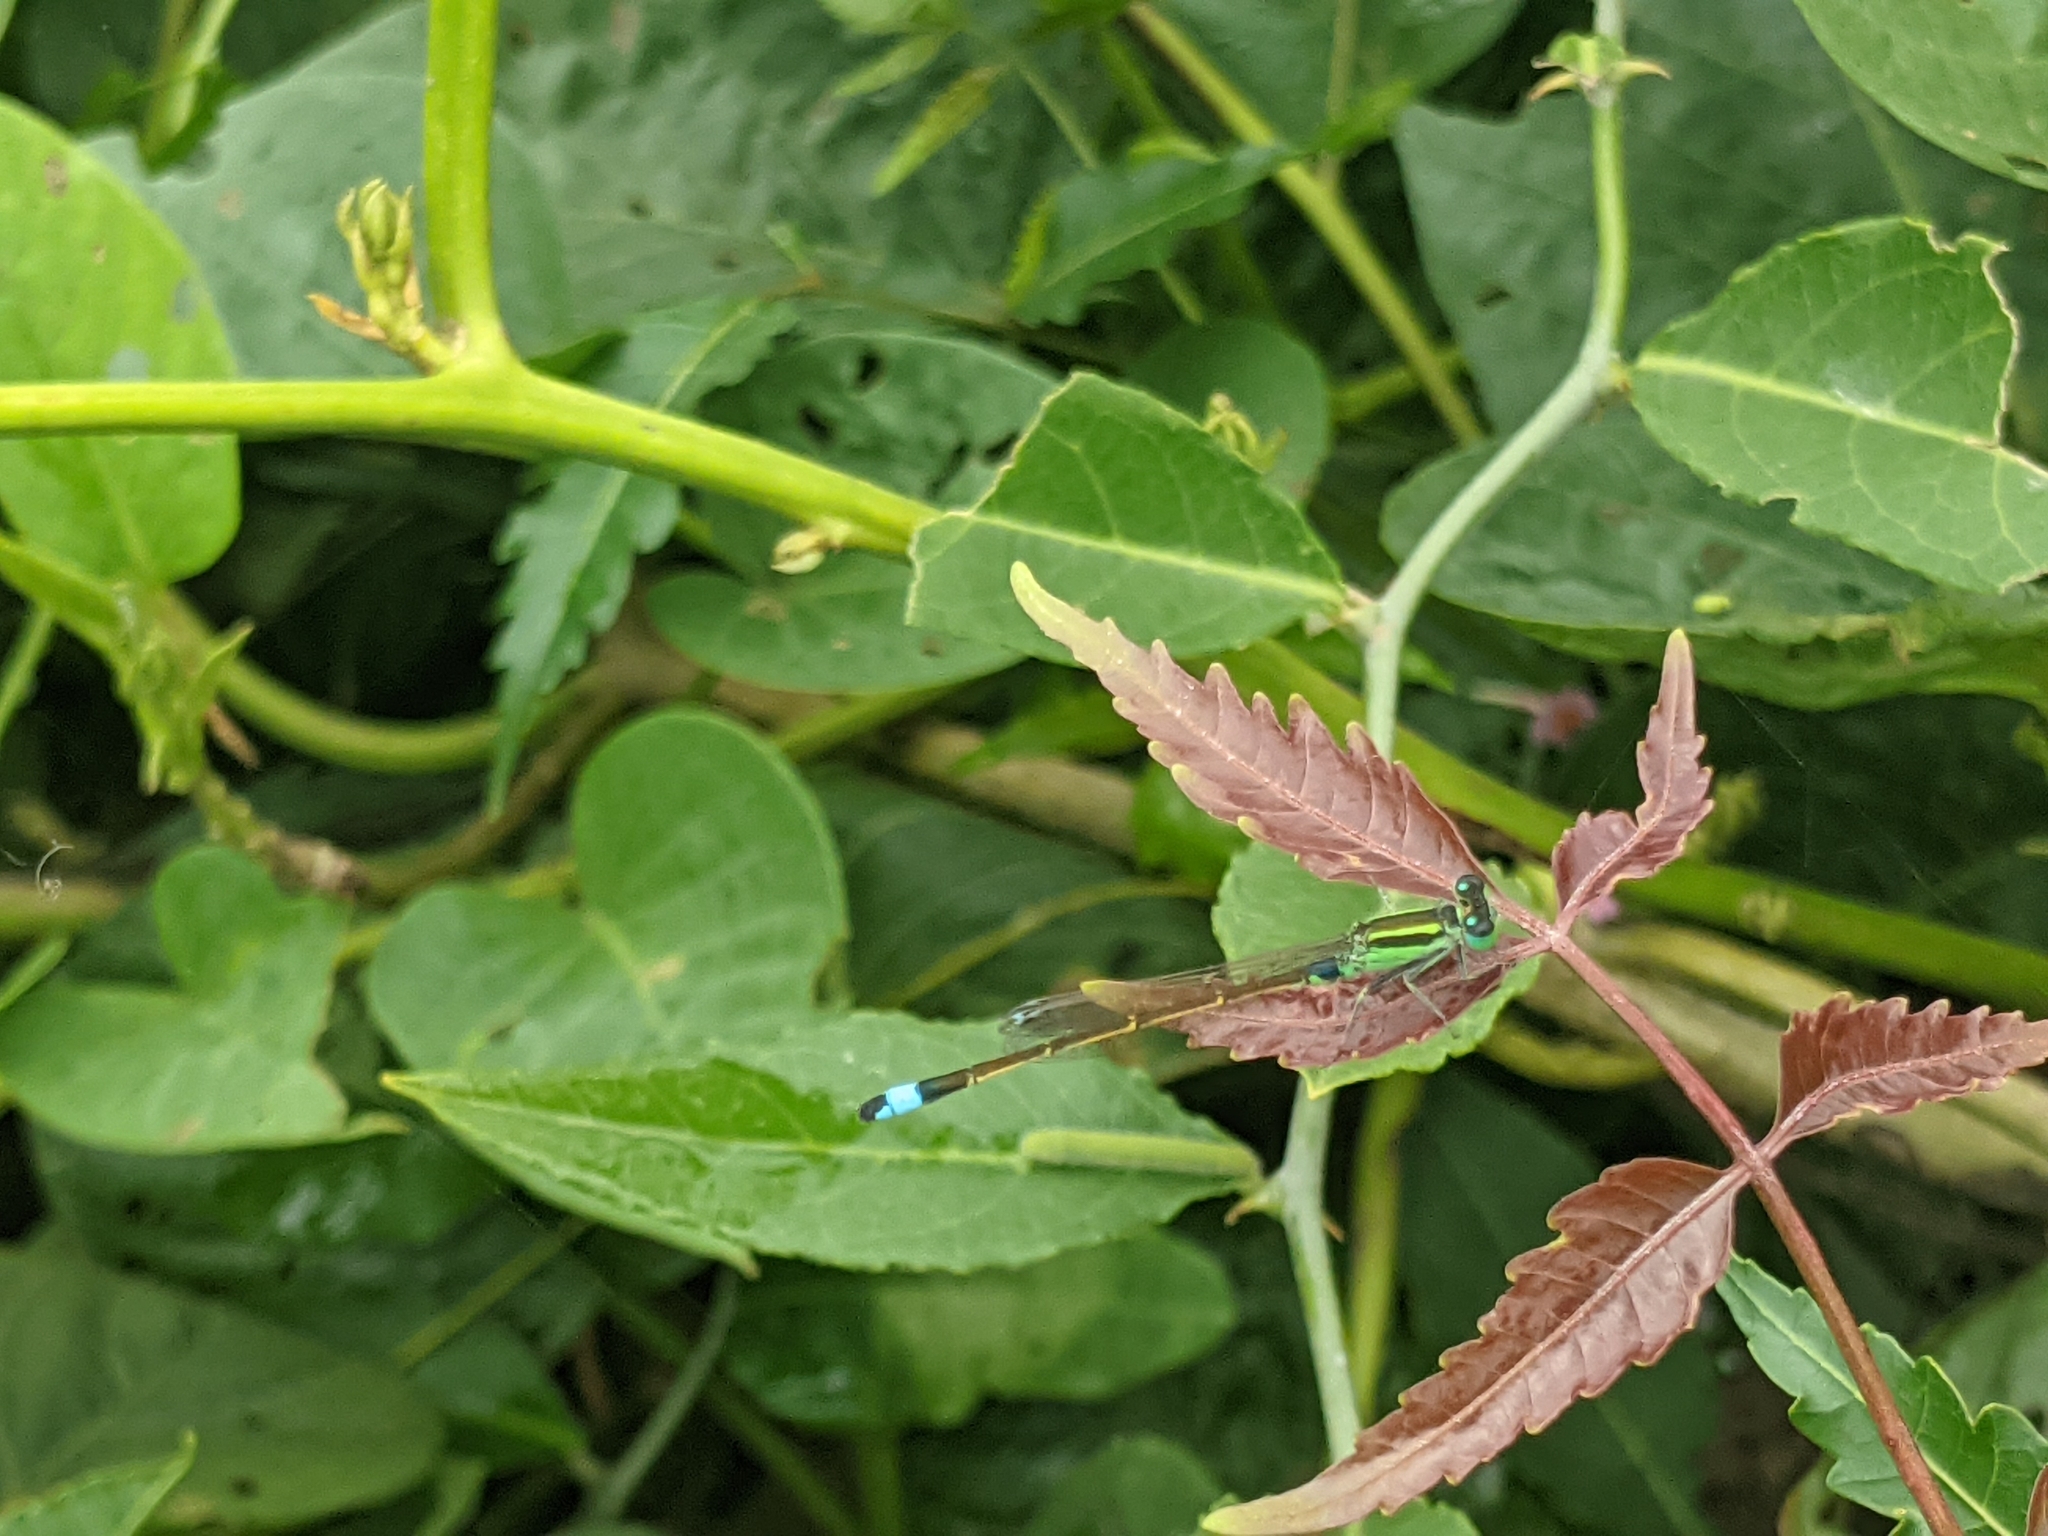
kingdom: Animalia
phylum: Arthropoda
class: Insecta
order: Odonata
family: Coenagrionidae
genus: Ischnura
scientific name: Ischnura senegalensis
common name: Tropical bluetail
